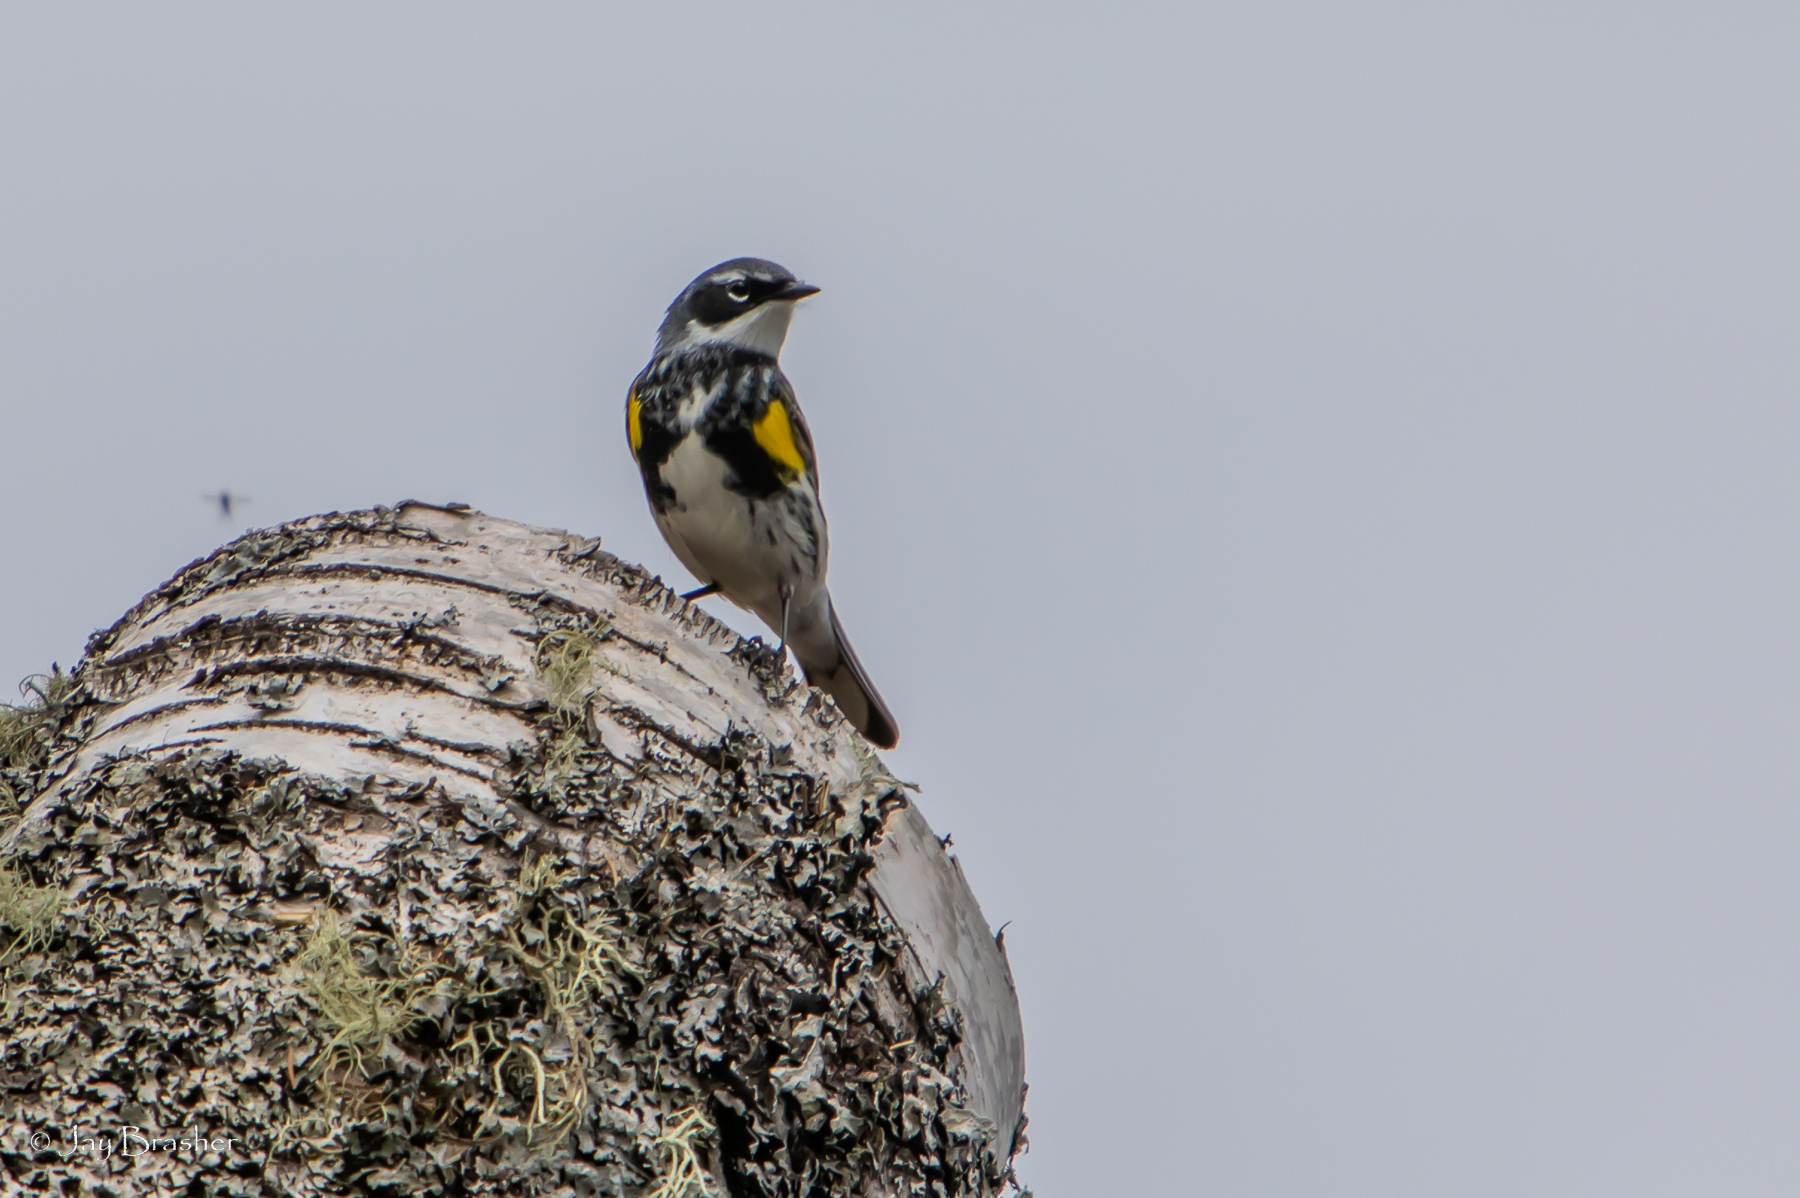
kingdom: Animalia
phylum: Chordata
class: Aves
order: Passeriformes
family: Parulidae
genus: Setophaga
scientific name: Setophaga coronata
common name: Myrtle warbler
